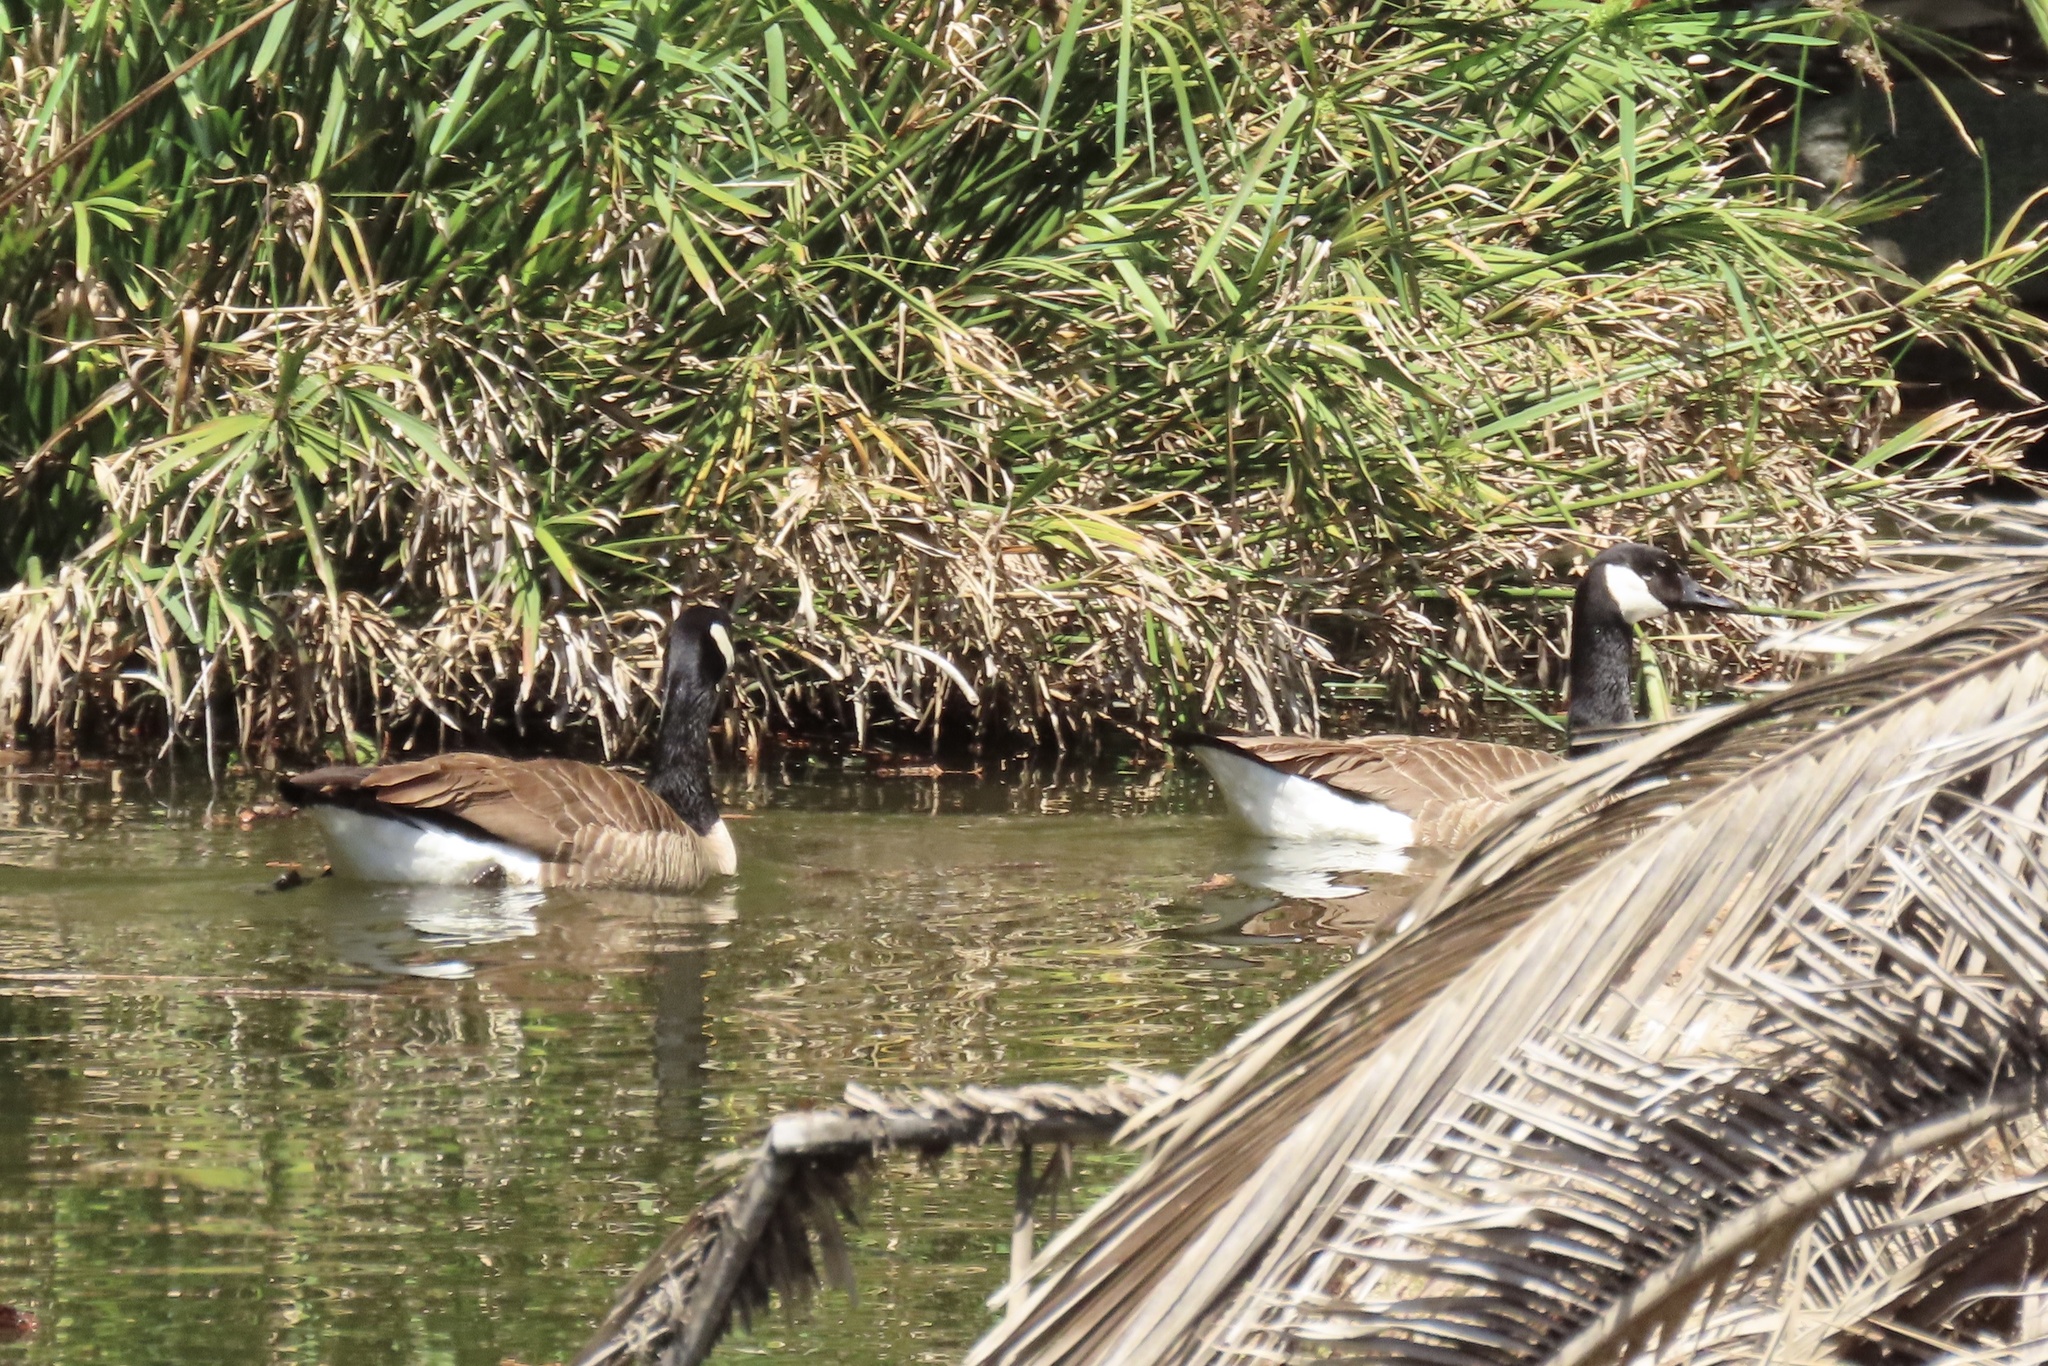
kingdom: Animalia
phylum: Chordata
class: Aves
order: Anseriformes
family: Anatidae
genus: Branta
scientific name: Branta canadensis
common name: Canada goose
